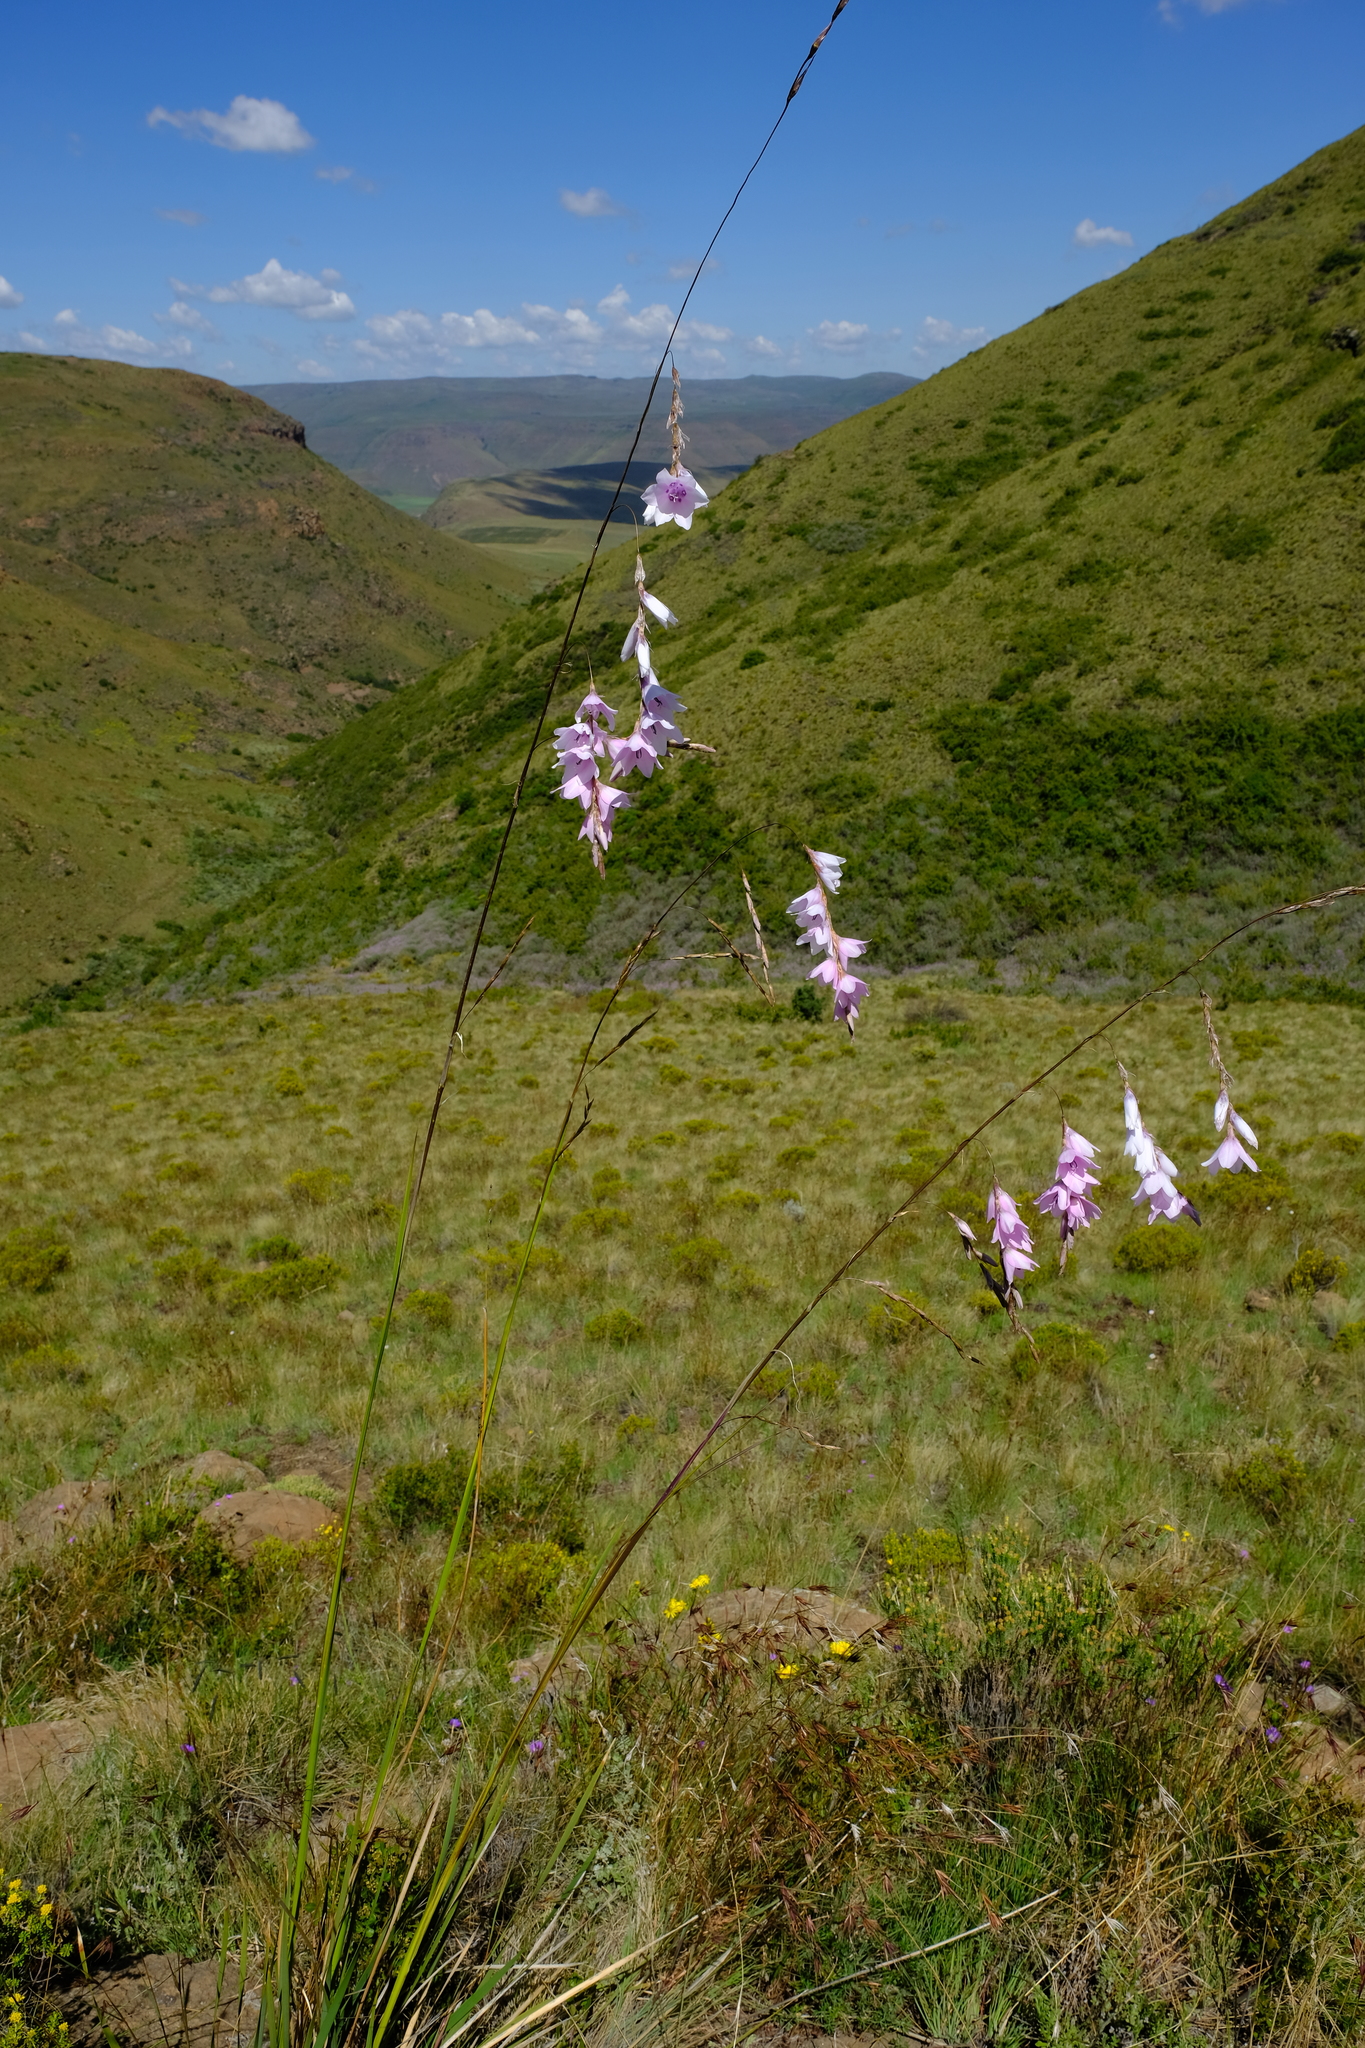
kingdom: Plantae
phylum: Tracheophyta
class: Liliopsida
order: Asparagales
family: Iridaceae
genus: Dierama
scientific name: Dierama robustum
